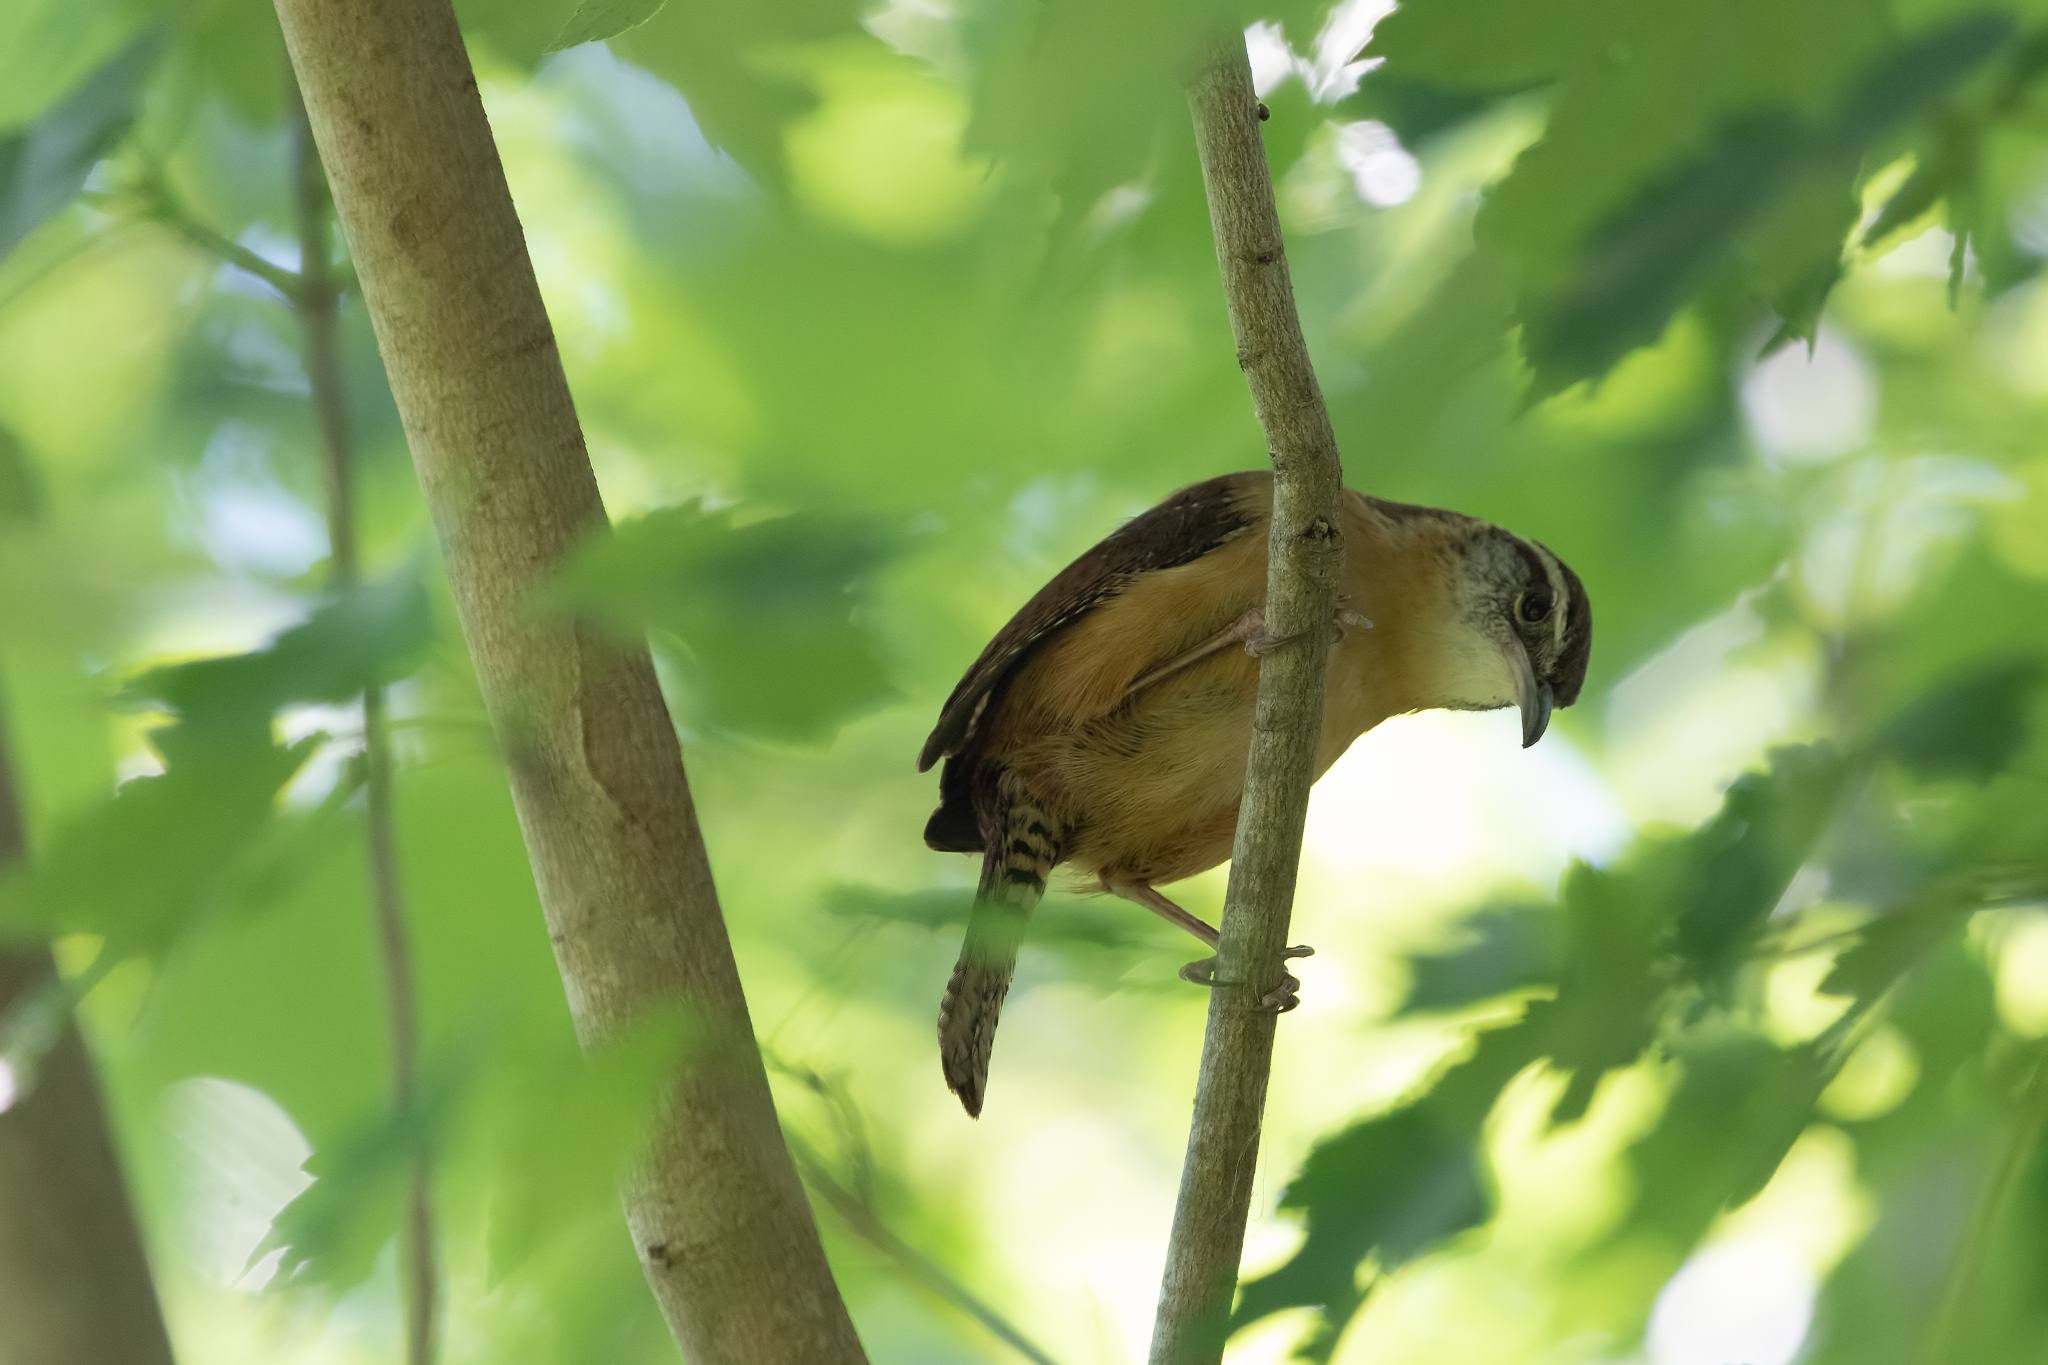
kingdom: Animalia
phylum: Chordata
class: Aves
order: Passeriformes
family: Troglodytidae
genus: Thryothorus
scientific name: Thryothorus ludovicianus
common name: Carolina wren
